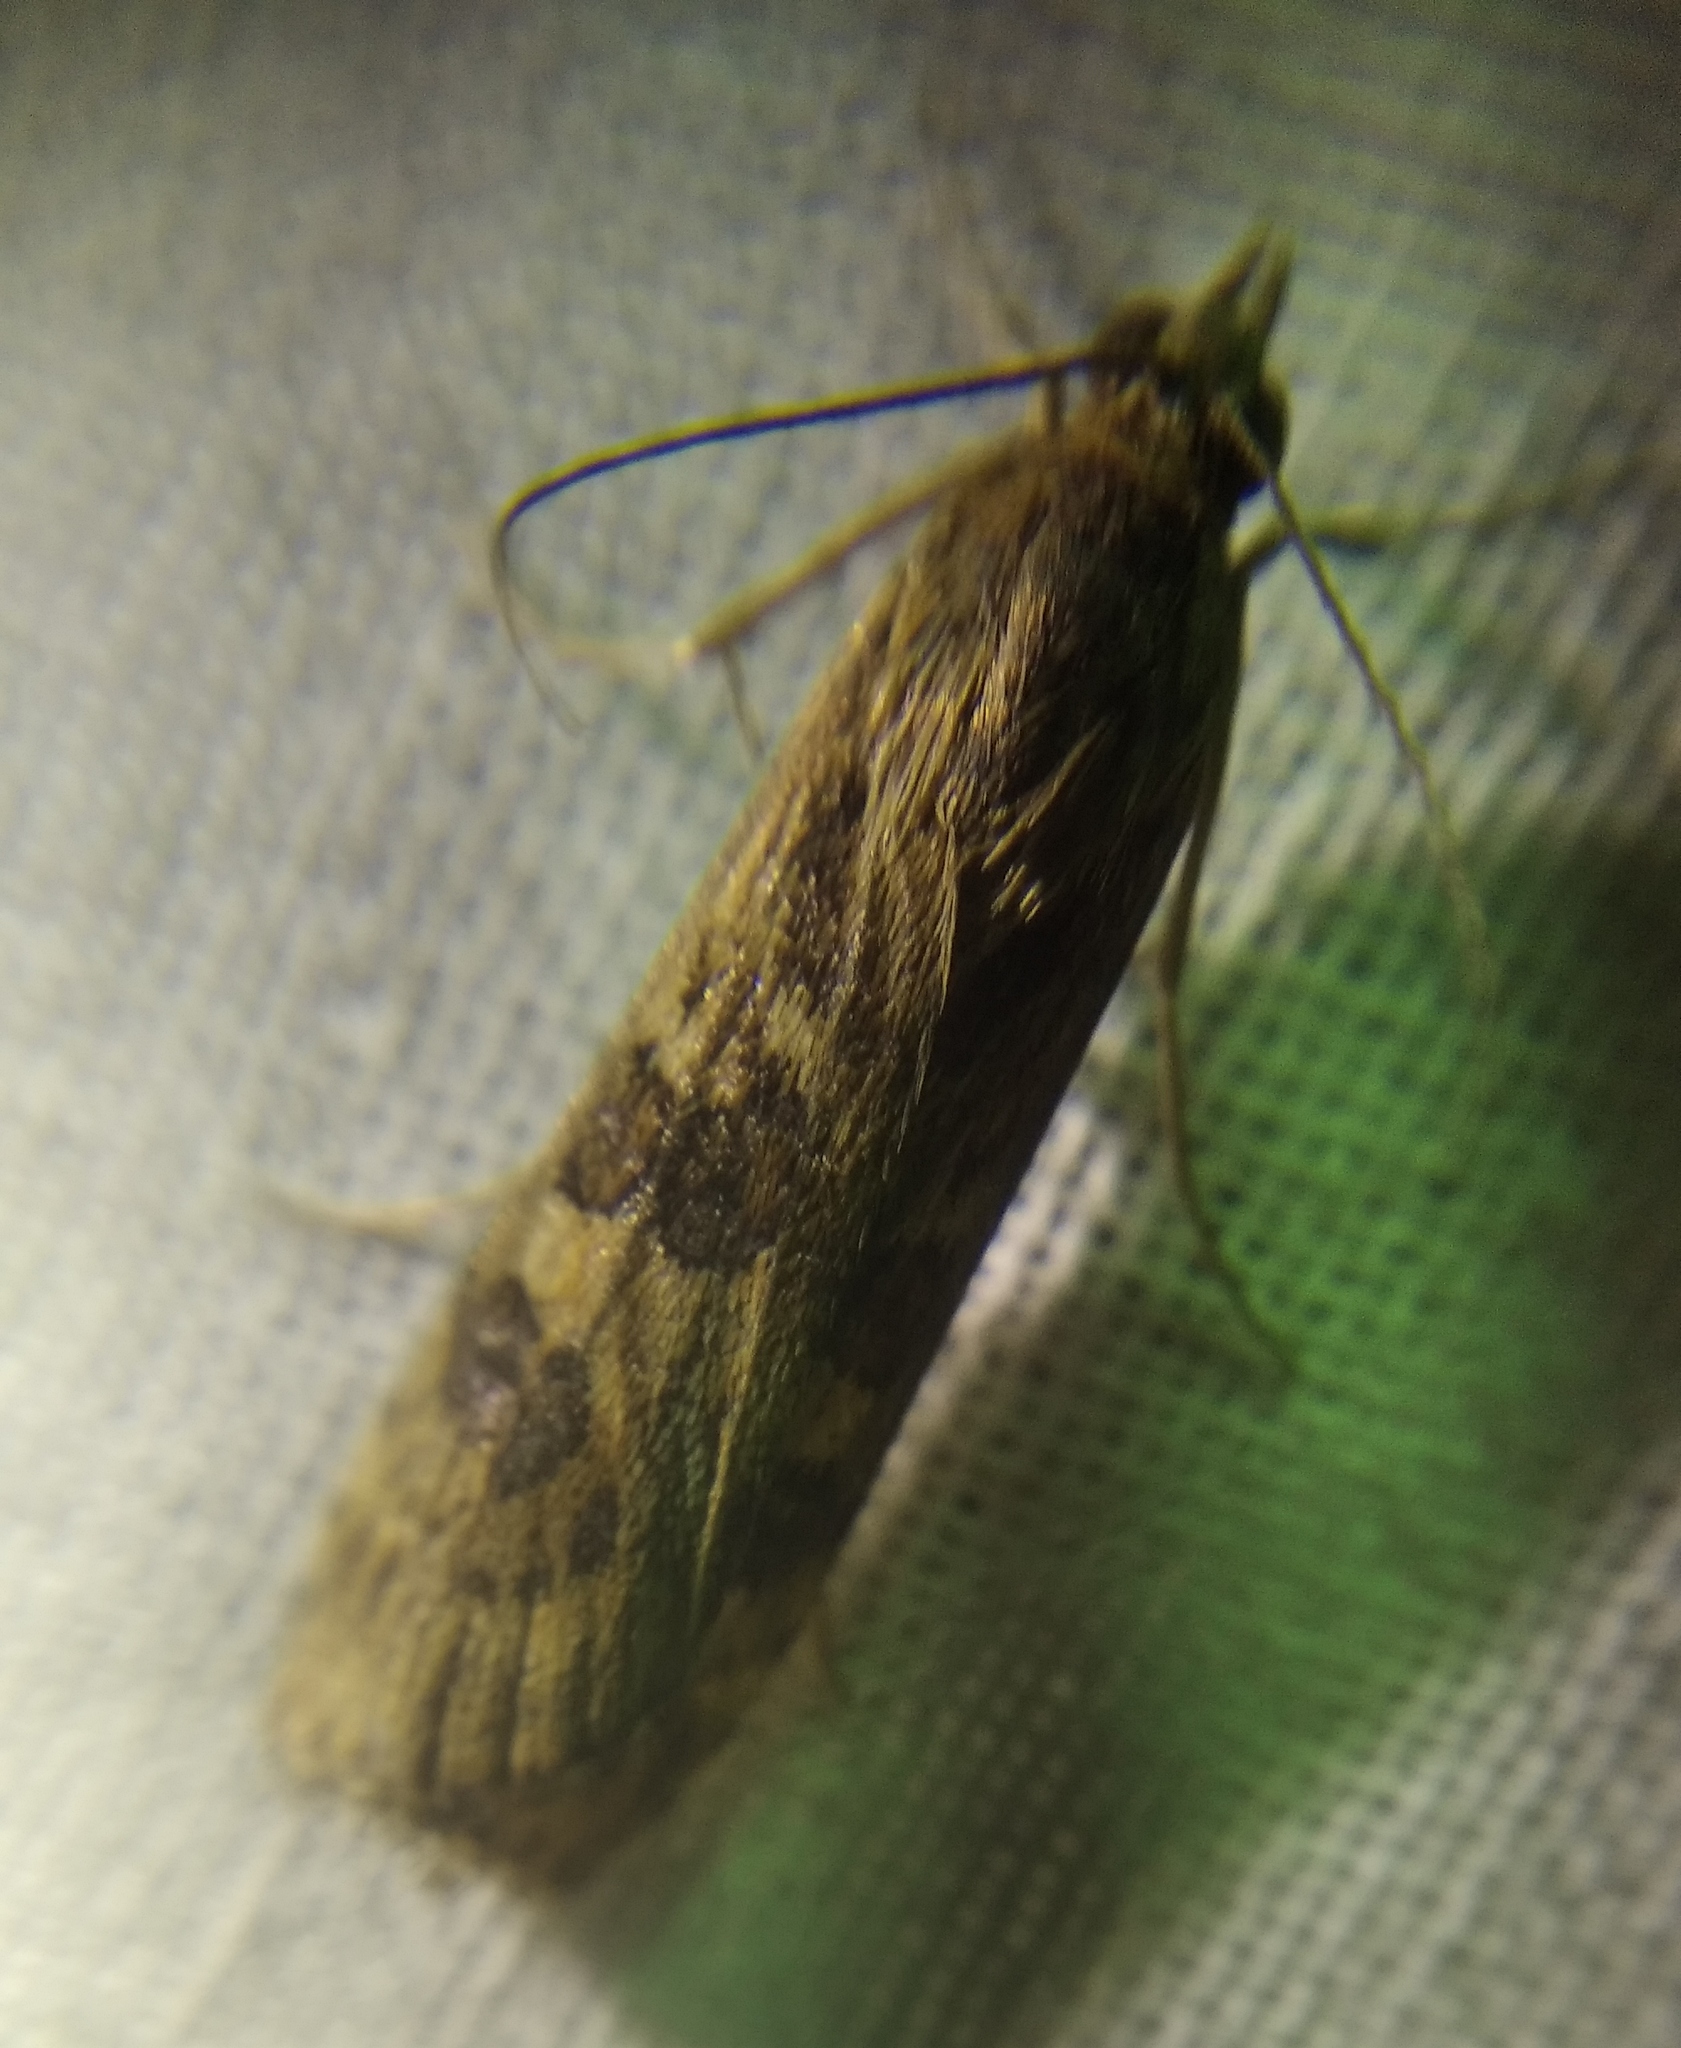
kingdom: Animalia
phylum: Arthropoda
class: Insecta
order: Lepidoptera
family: Crambidae
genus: Nomophila
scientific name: Nomophila noctuella
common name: Rush veneer
